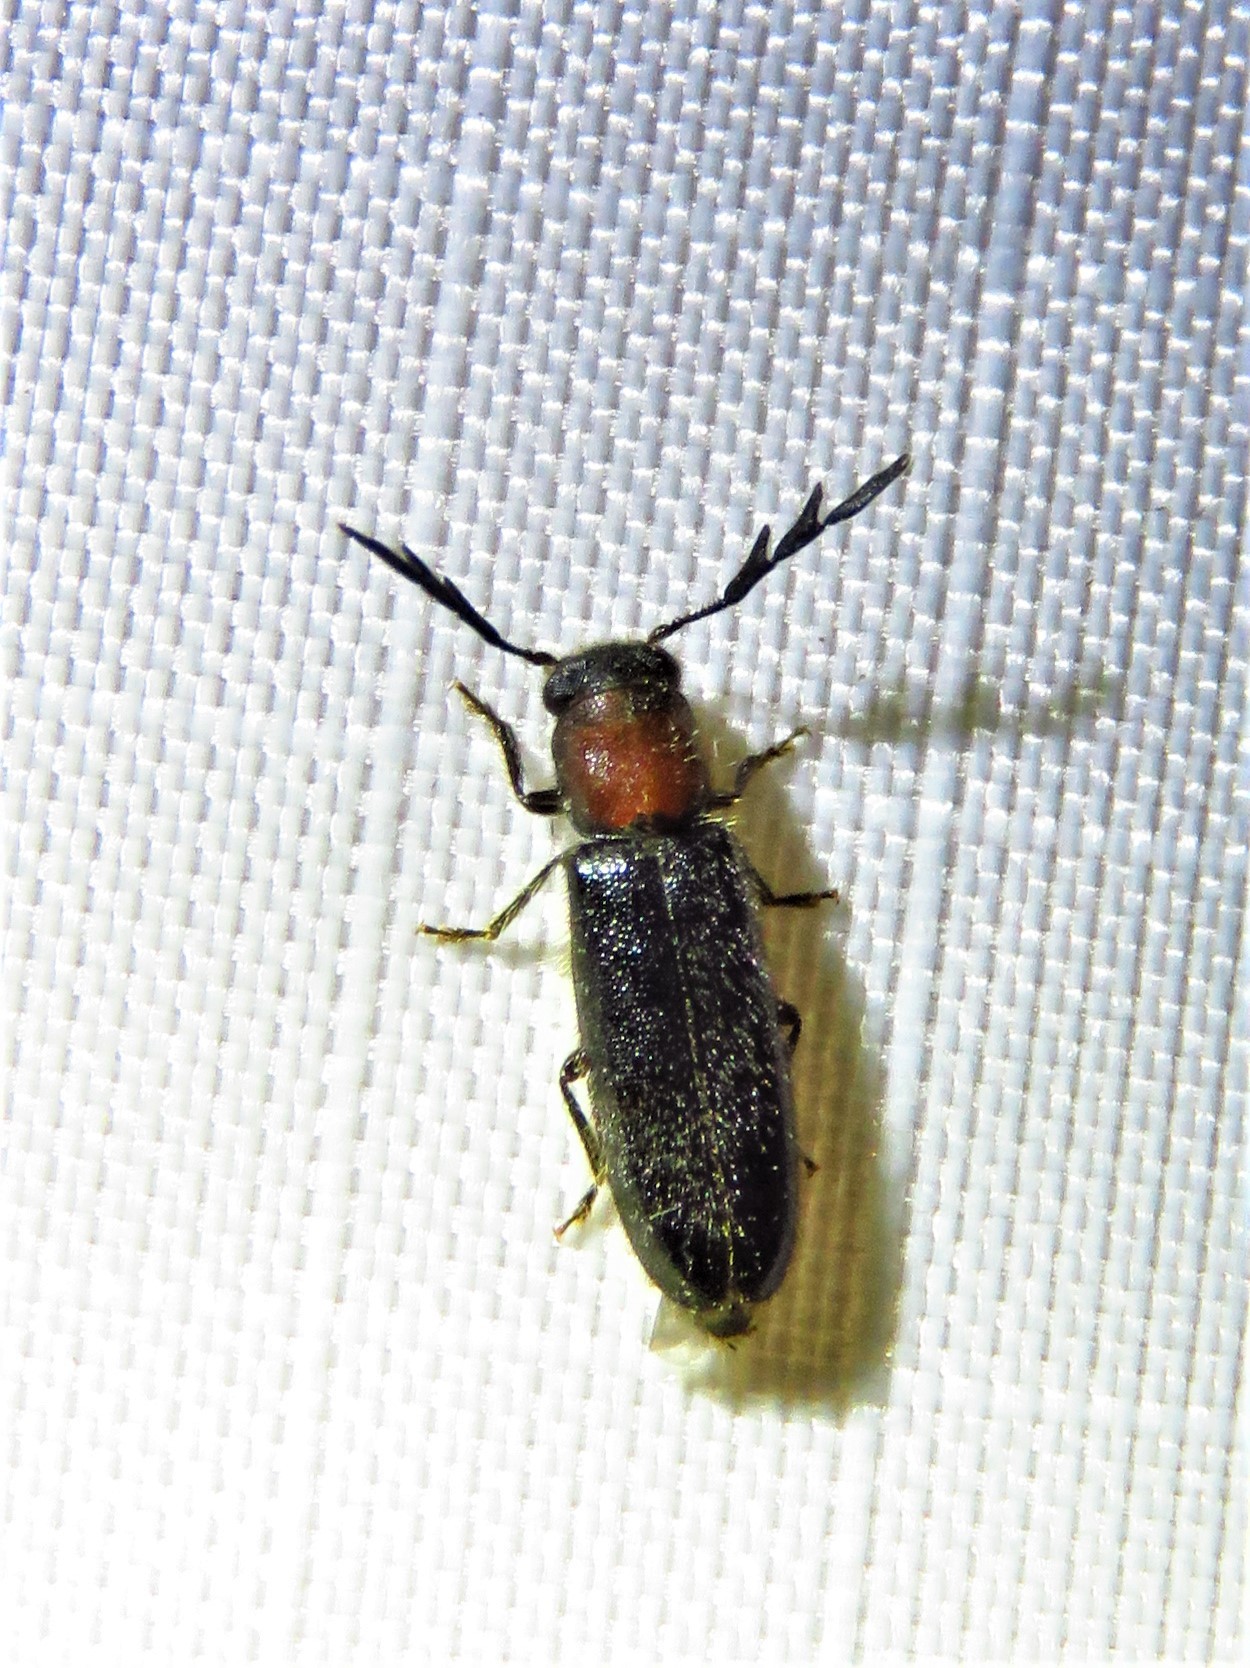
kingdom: Animalia
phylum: Arthropoda
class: Insecta
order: Coleoptera
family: Cleridae
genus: Neorthopleura
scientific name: Neorthopleura thoracica
